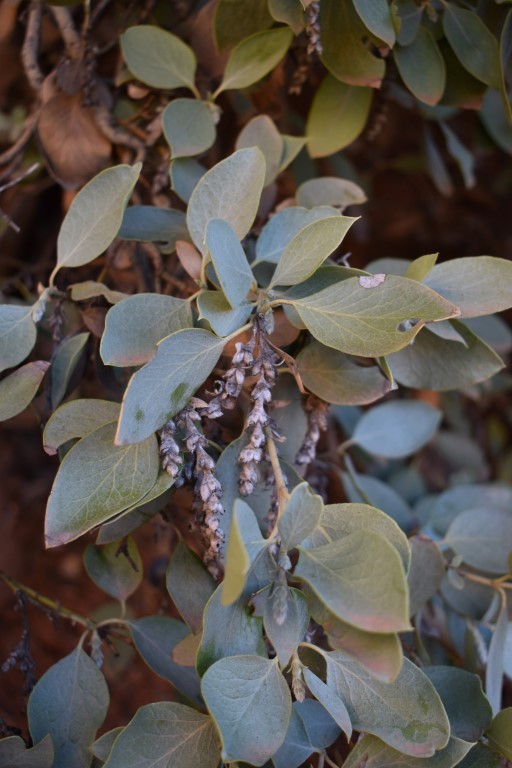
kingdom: Plantae
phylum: Tracheophyta
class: Magnoliopsida
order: Garryales
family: Garryaceae
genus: Garrya
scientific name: Garrya flavescens
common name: Ashy silk-tassel
